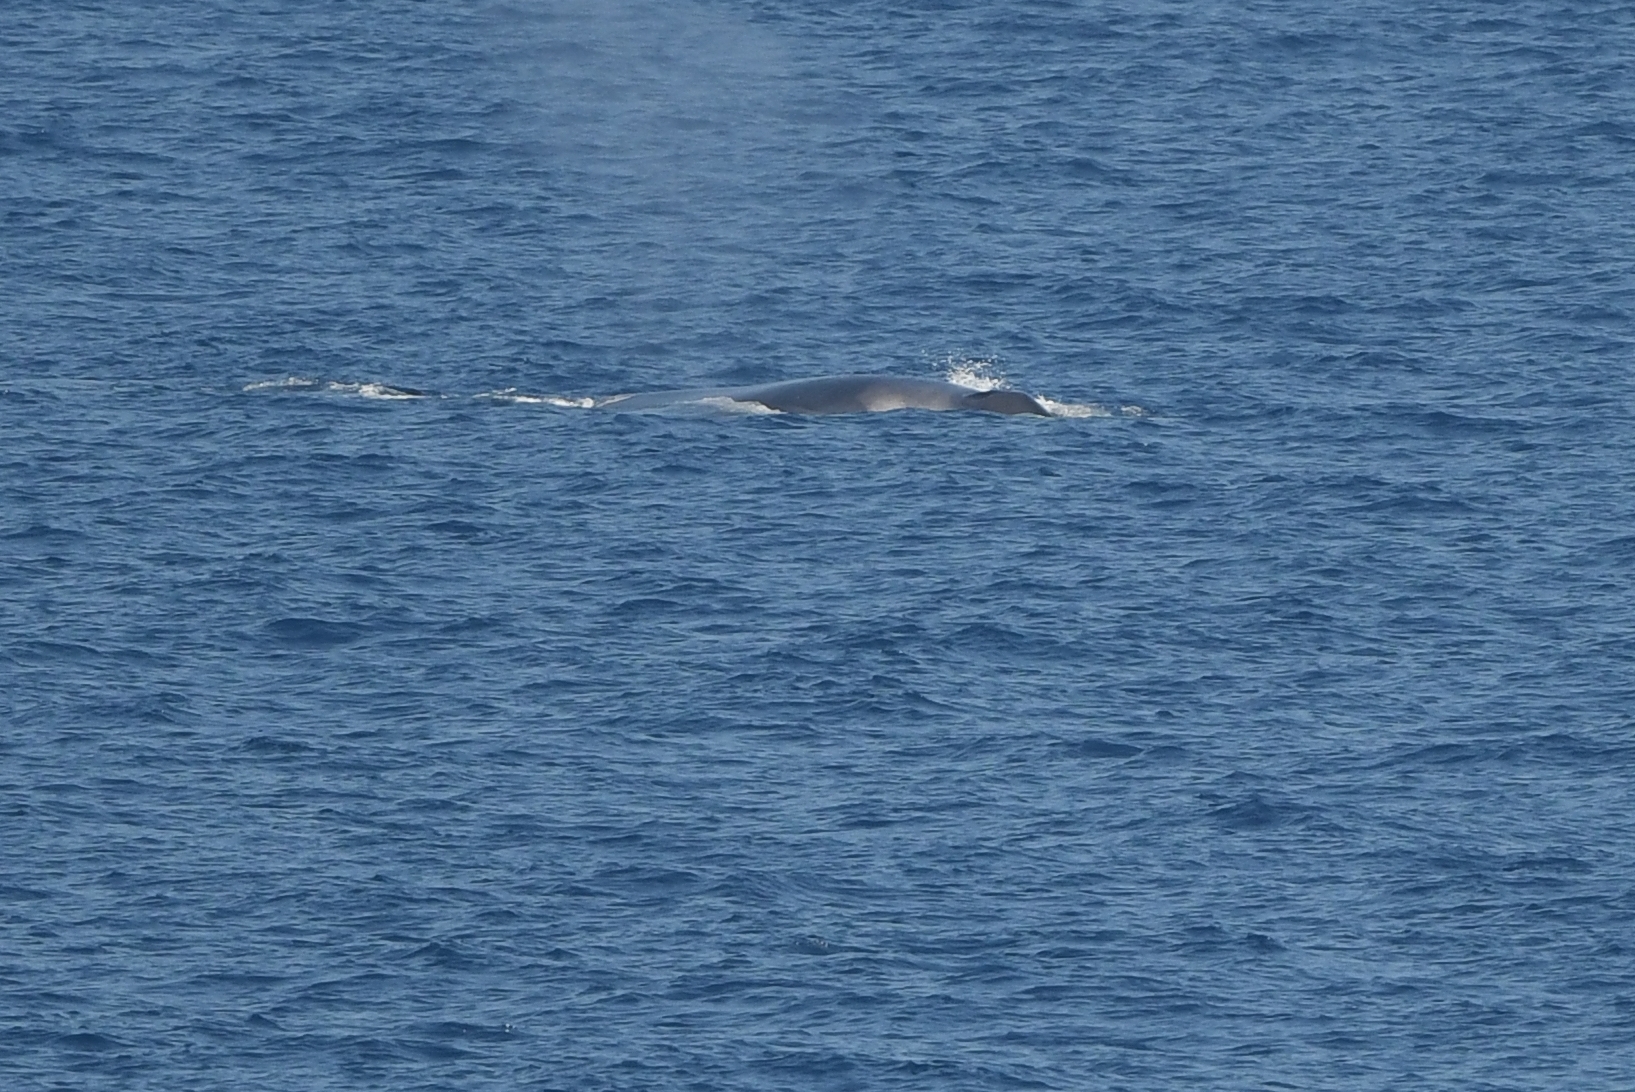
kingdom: Animalia
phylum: Chordata
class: Mammalia
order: Cetacea
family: Balaenopteridae
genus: Balaenoptera
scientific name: Balaenoptera physalus
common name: Fin whale
